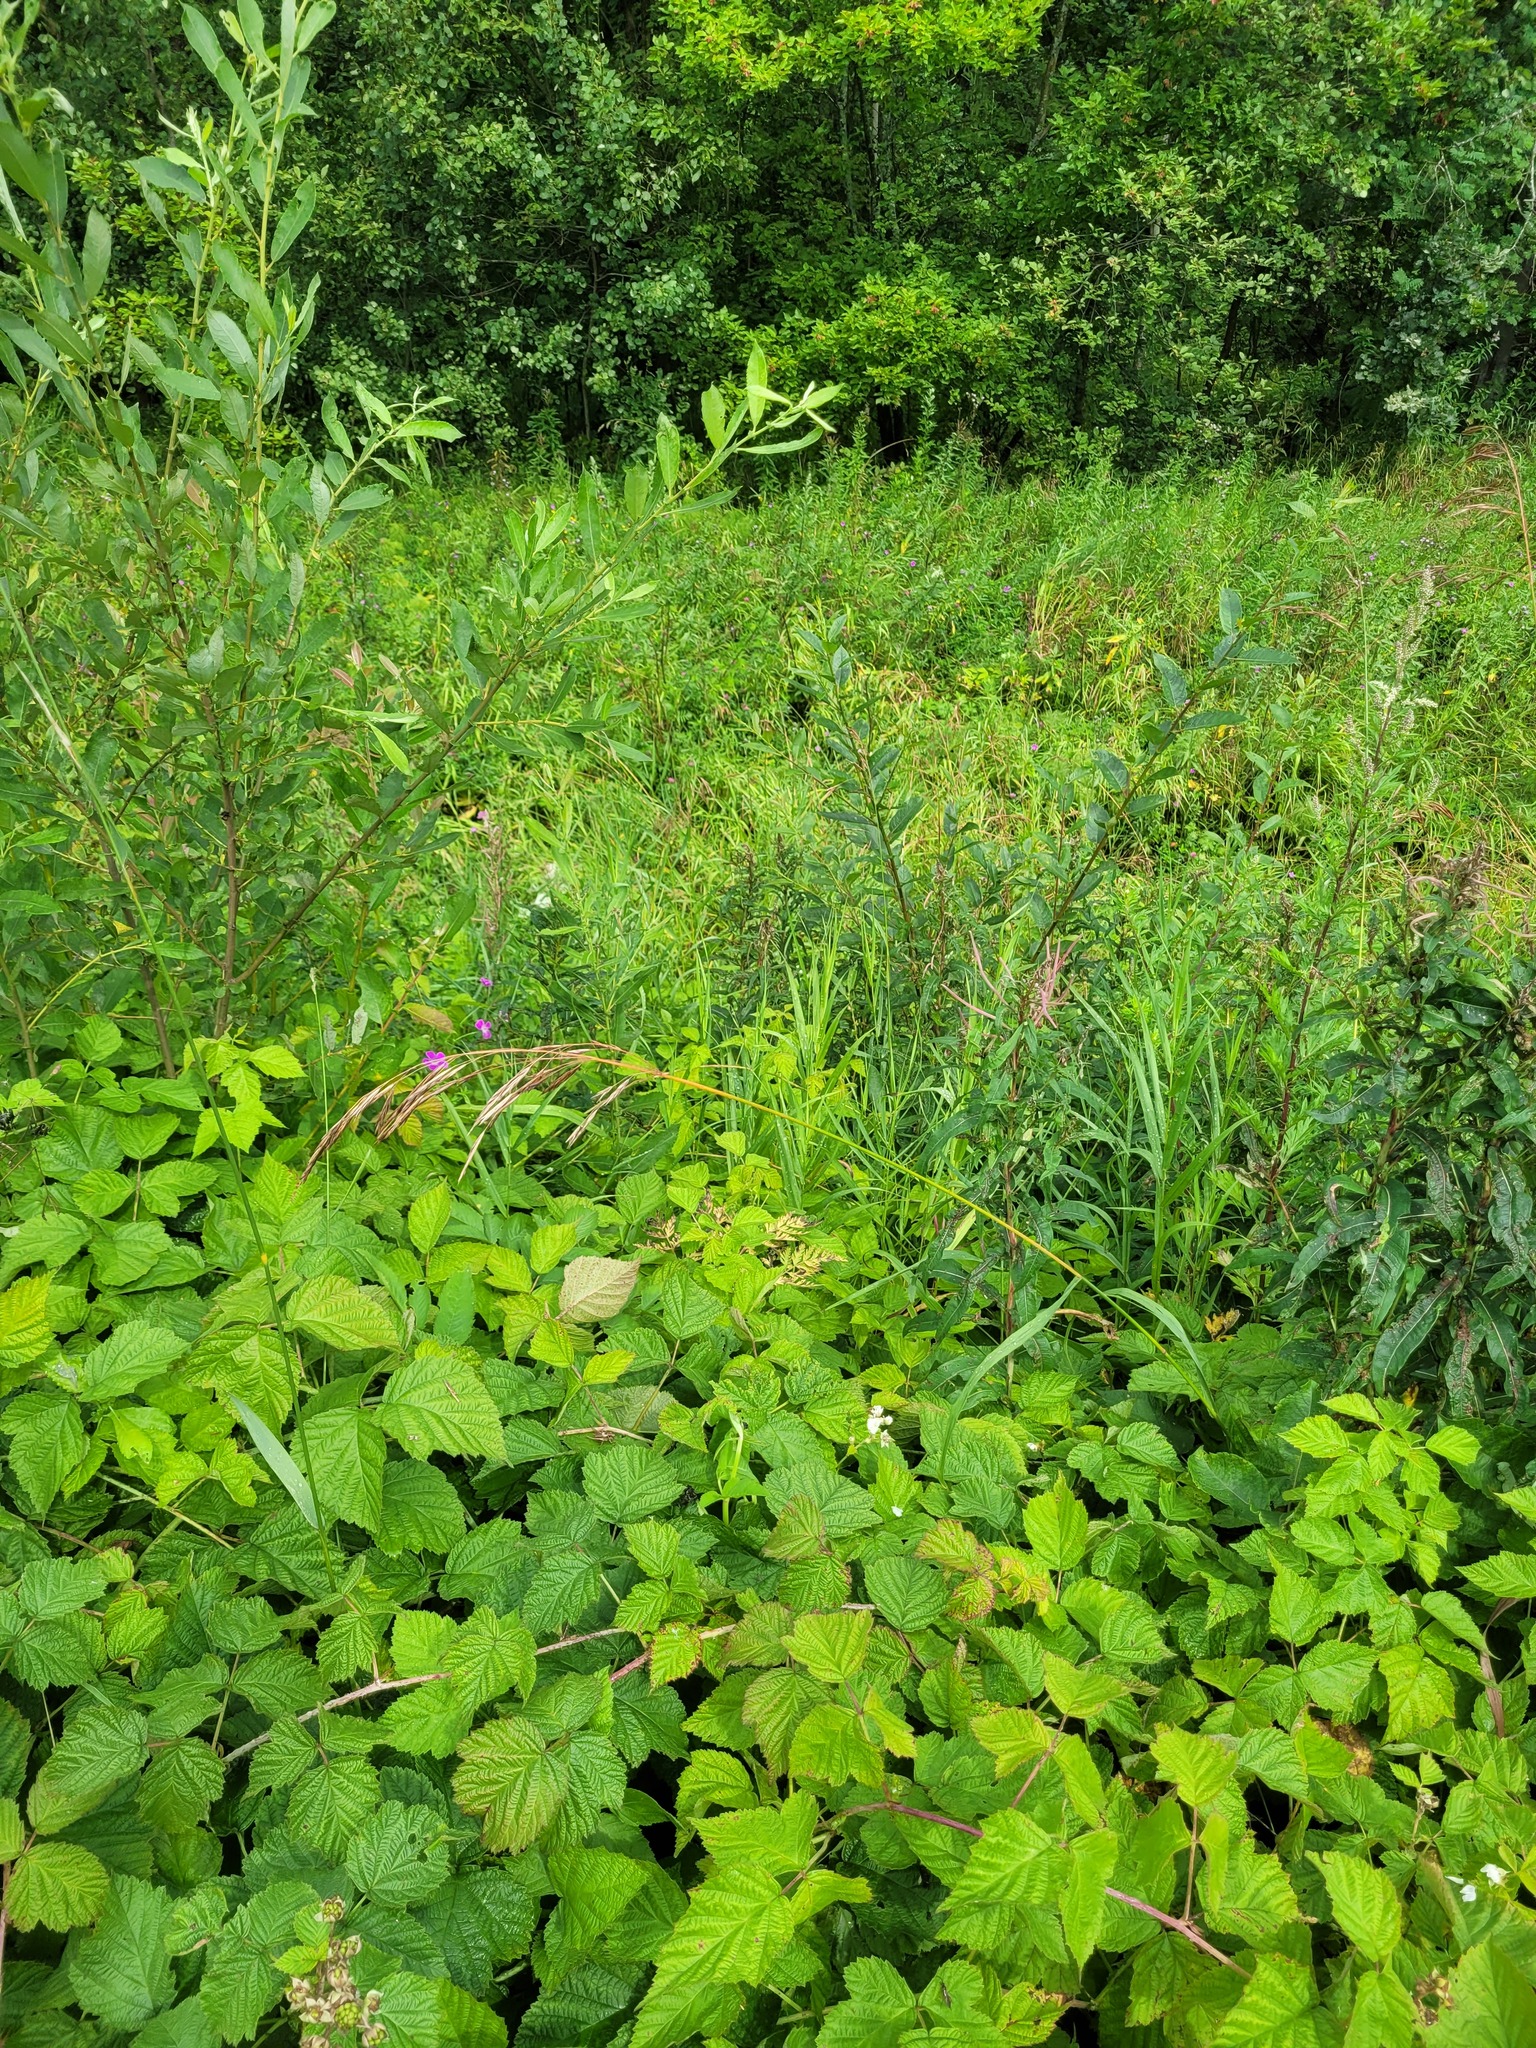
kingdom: Plantae
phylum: Tracheophyta
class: Liliopsida
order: Poales
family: Poaceae
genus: Bromus
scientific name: Bromus inermis
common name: Smooth brome
